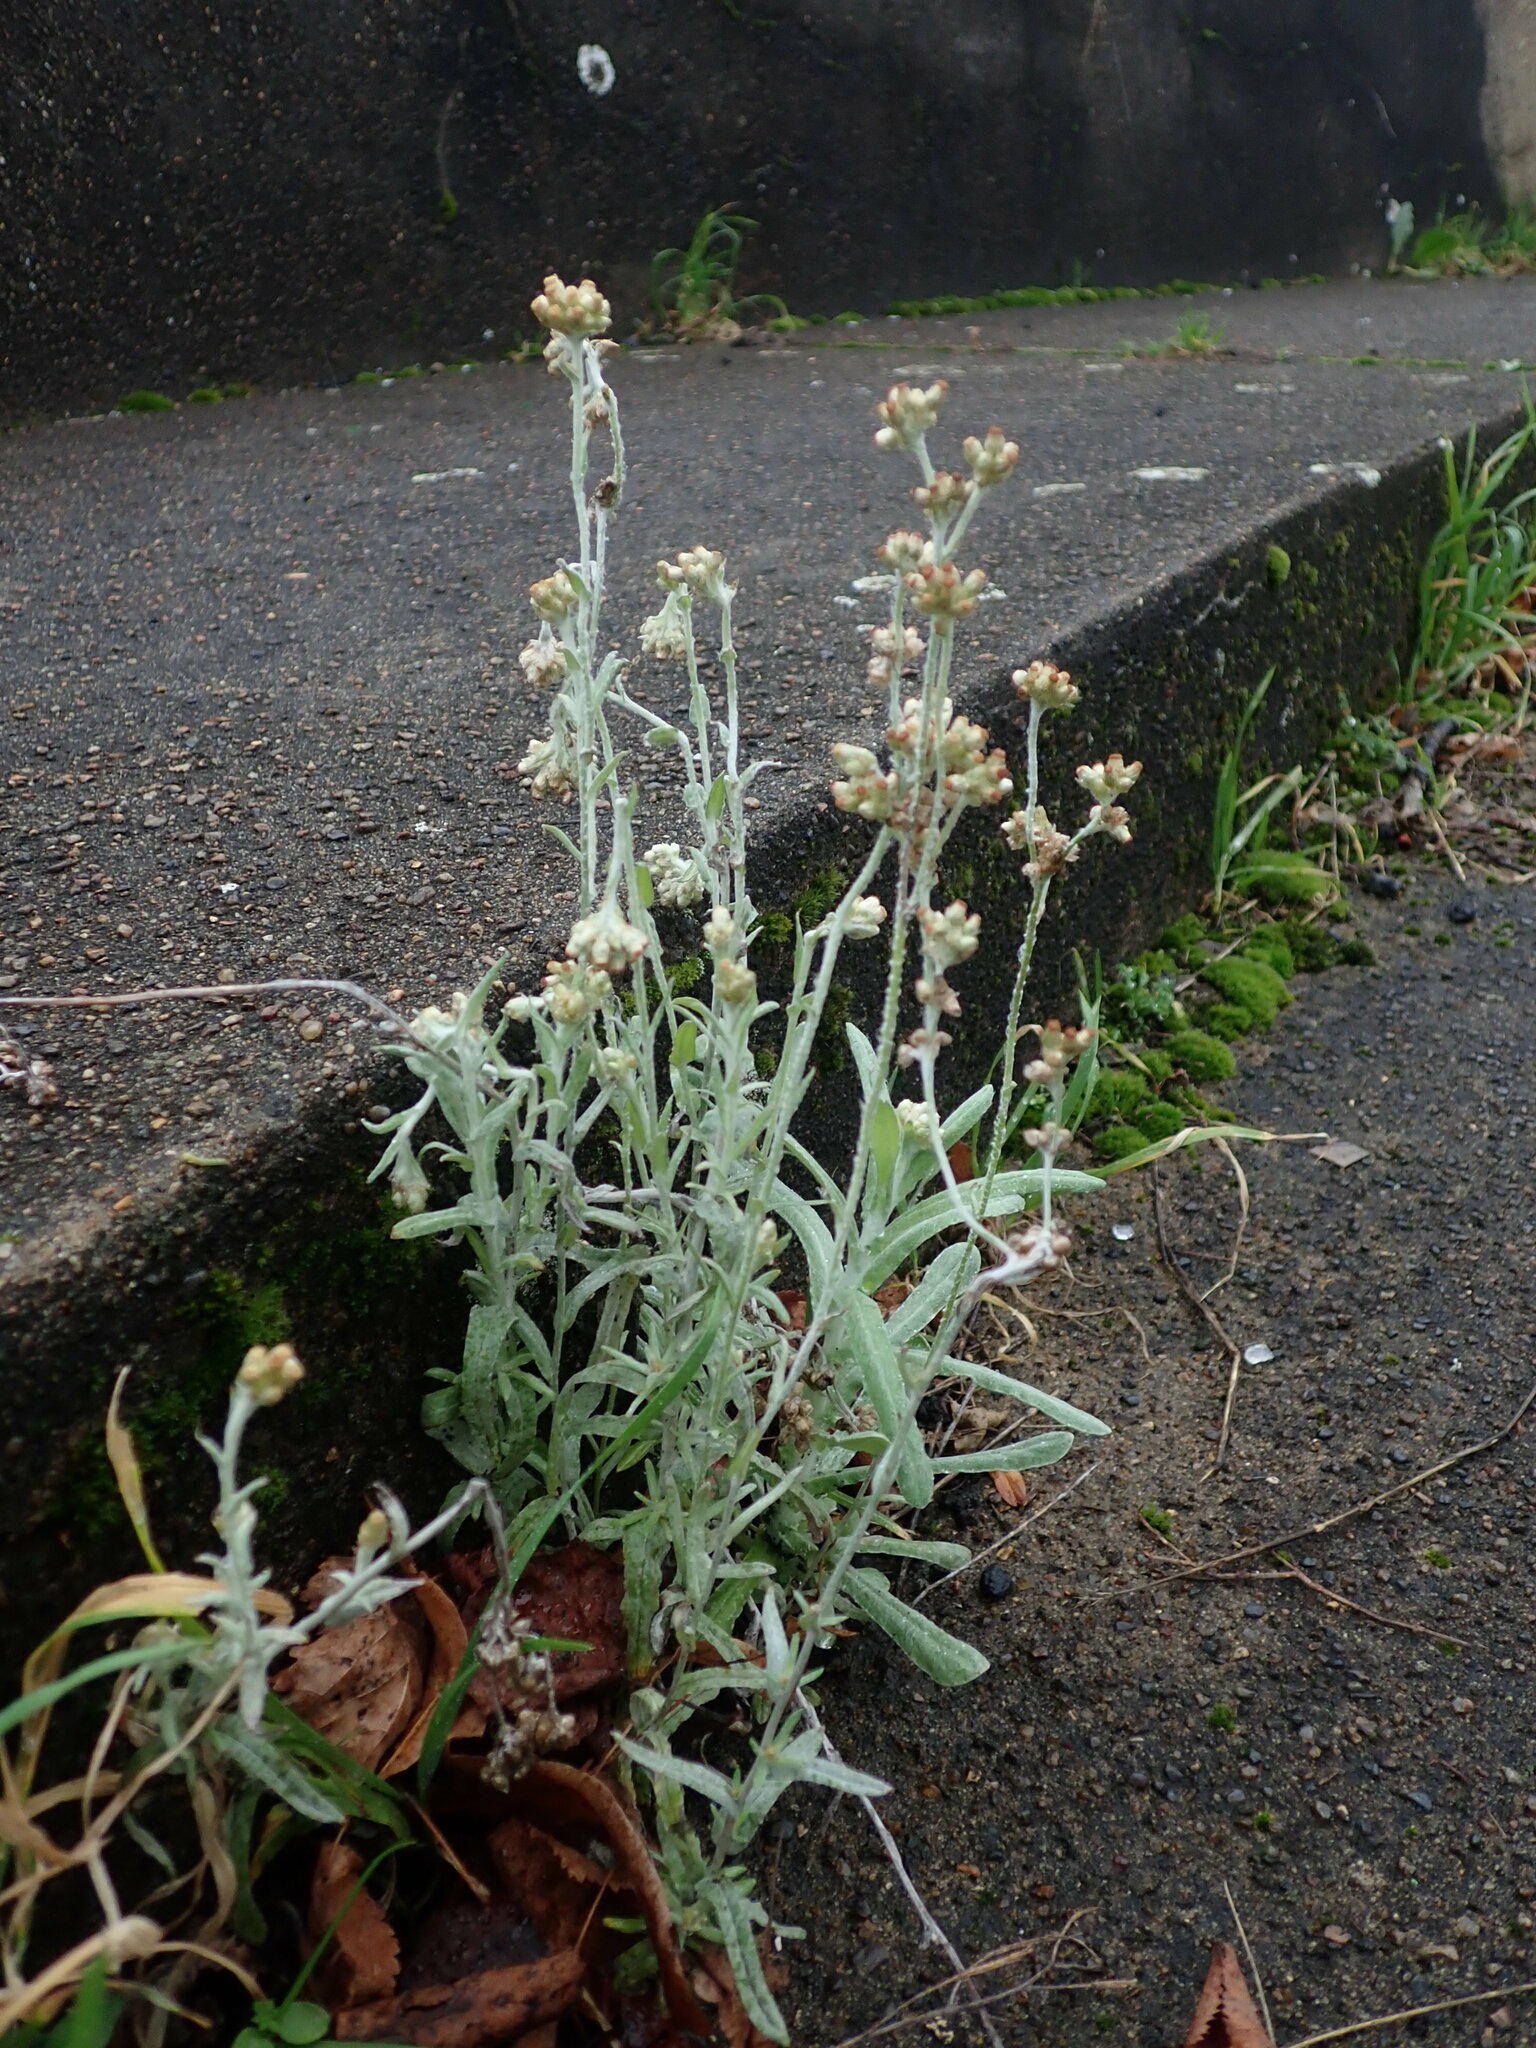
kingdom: Plantae
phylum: Tracheophyta
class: Magnoliopsida
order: Asterales
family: Asteraceae
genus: Helichrysum
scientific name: Helichrysum luteoalbum
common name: Daisy
